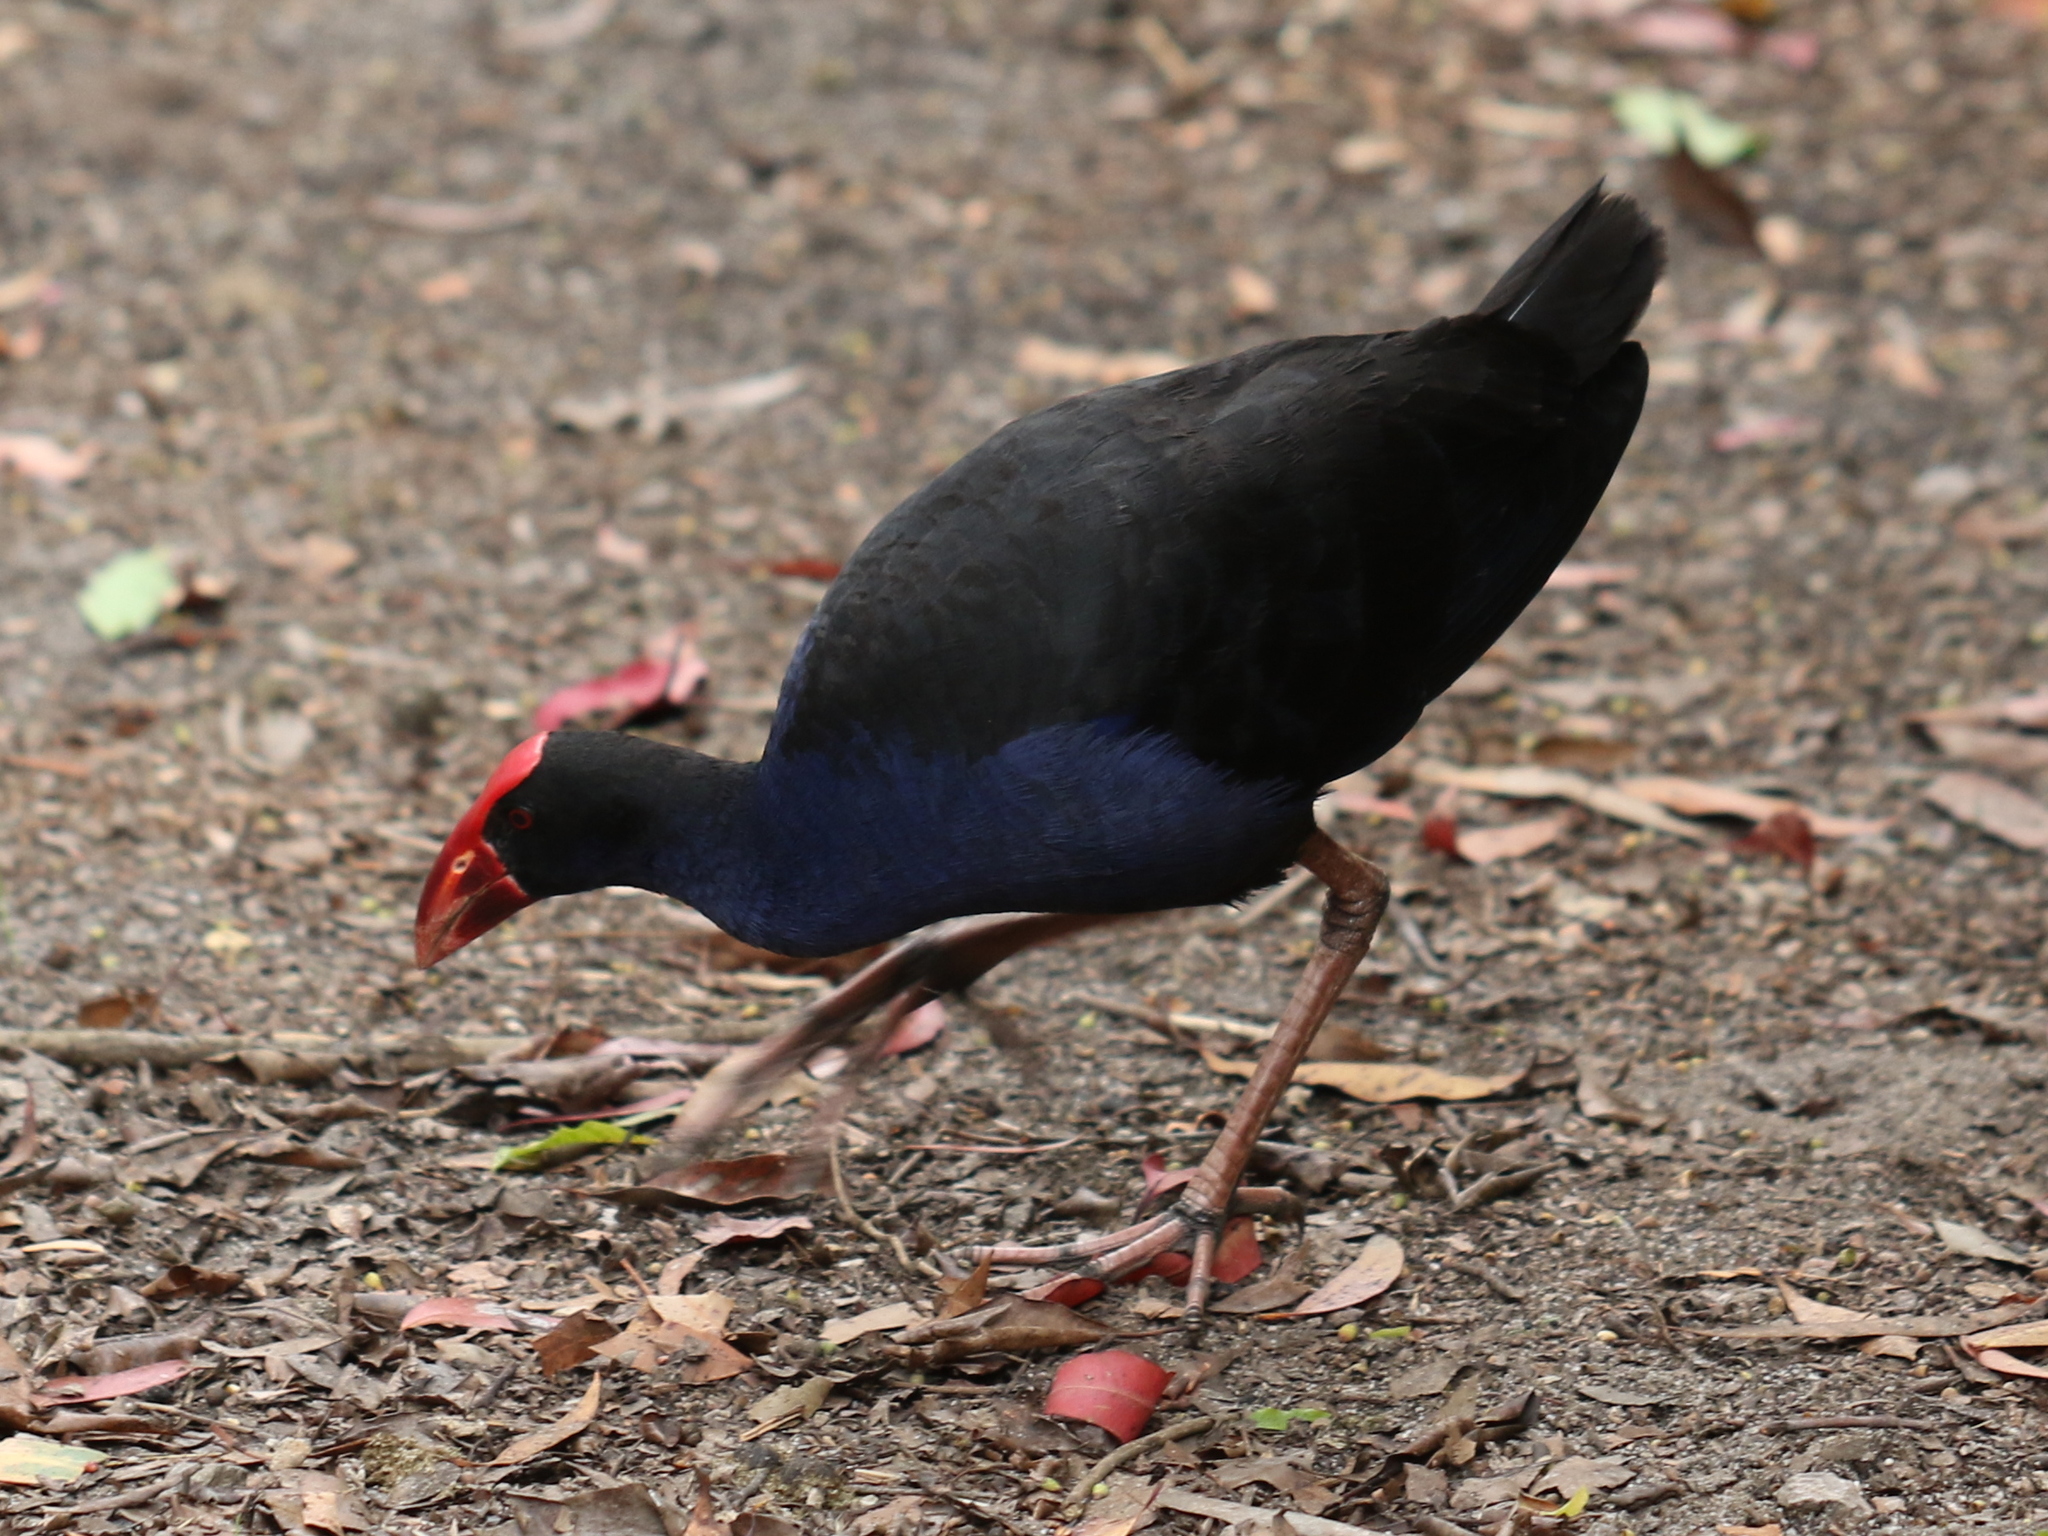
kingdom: Animalia
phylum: Chordata
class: Aves
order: Gruiformes
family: Rallidae
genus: Porphyrio
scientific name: Porphyrio melanotus
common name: Australasian swamphen
